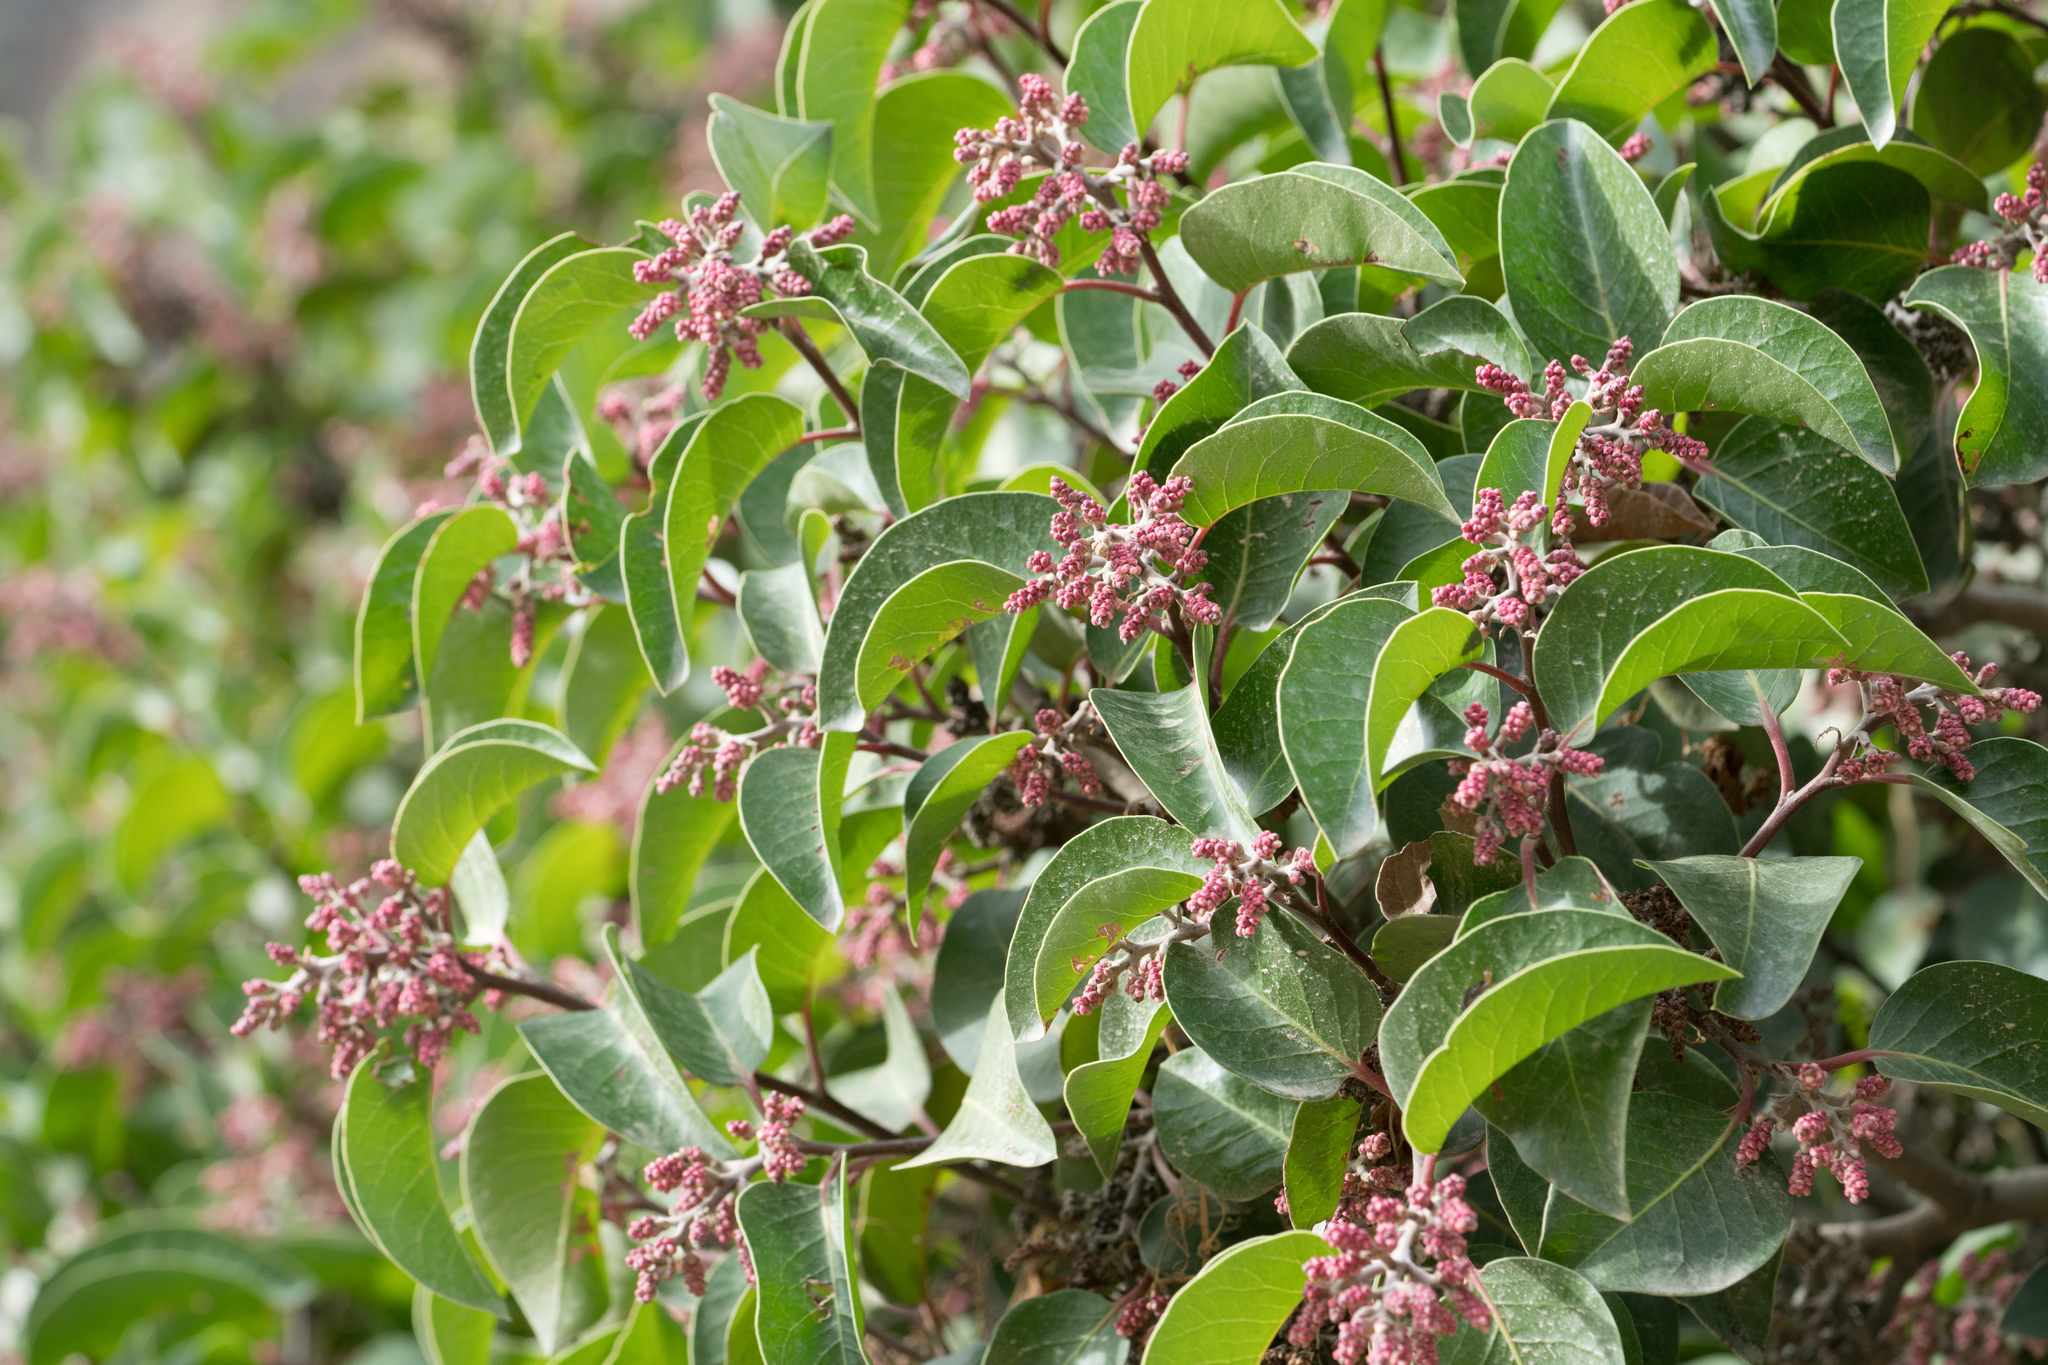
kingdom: Plantae
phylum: Tracheophyta
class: Magnoliopsida
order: Sapindales
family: Anacardiaceae
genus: Rhus
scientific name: Rhus ovata
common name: Sugar sumac
